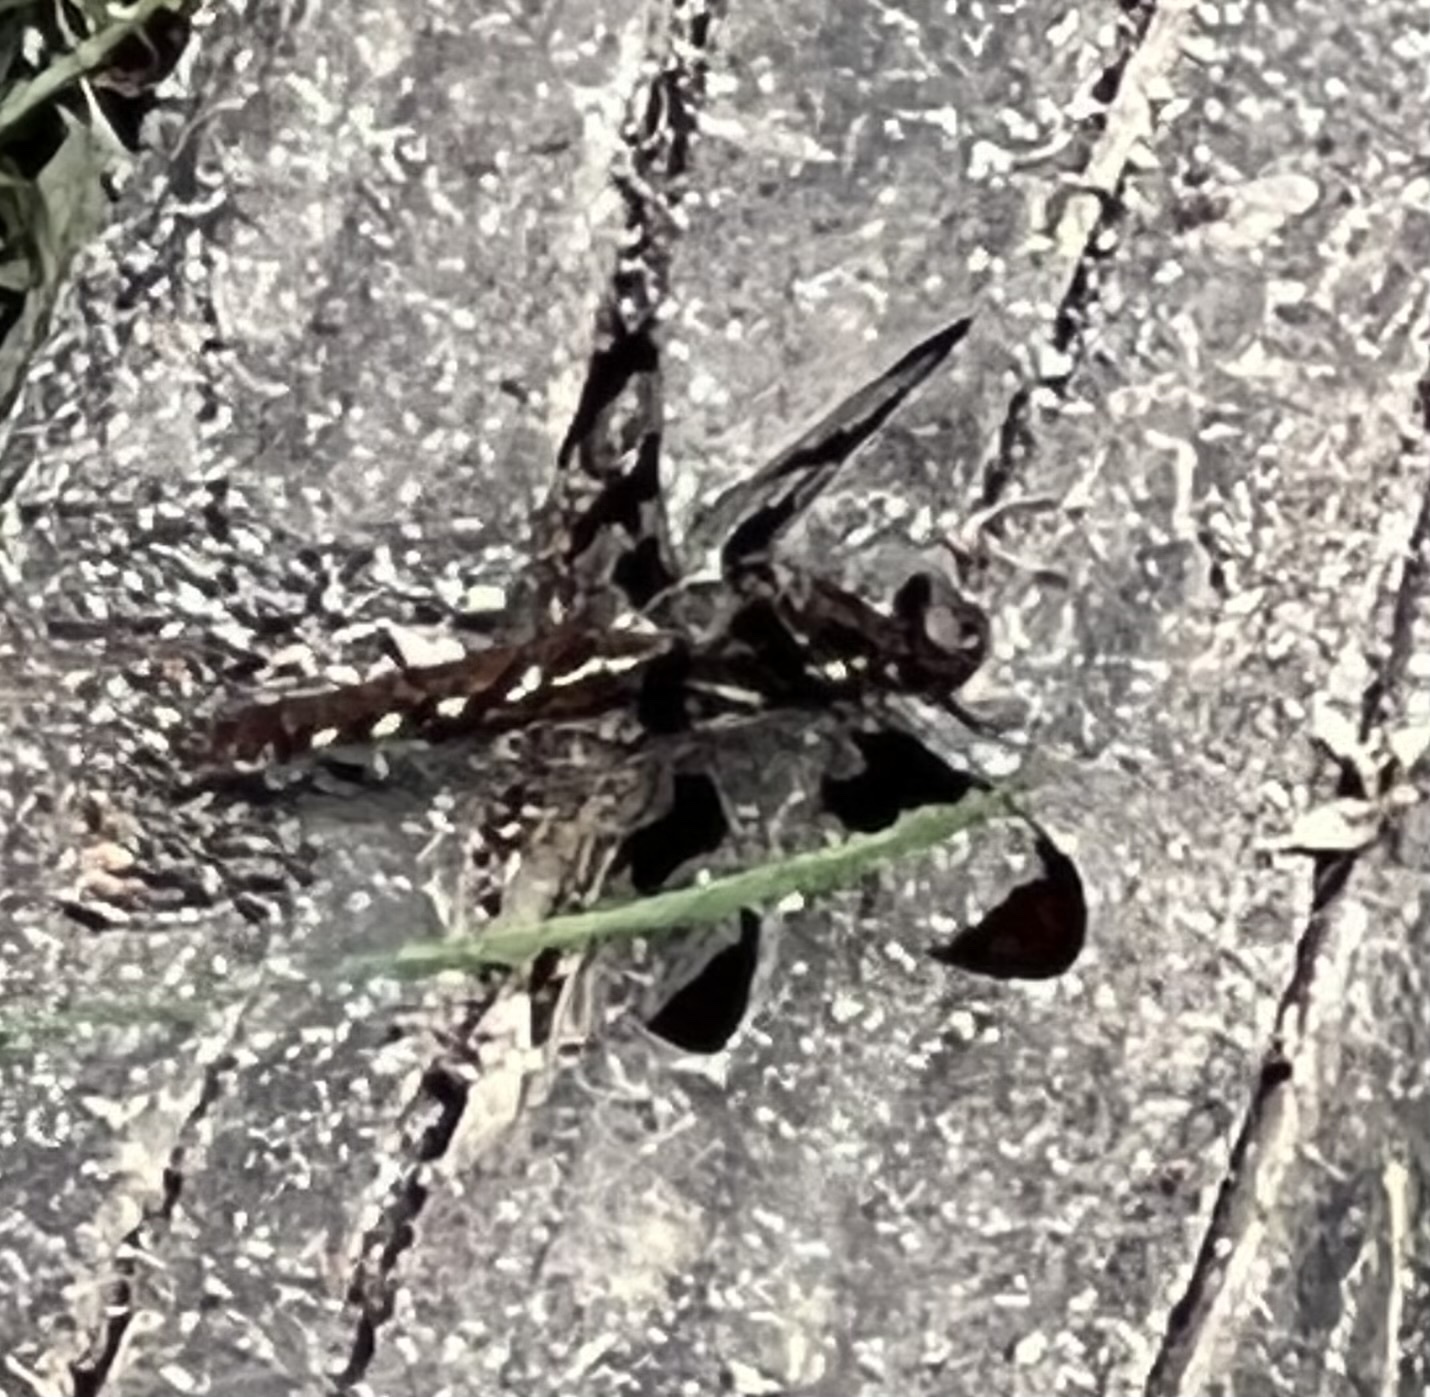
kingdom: Animalia
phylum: Arthropoda
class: Insecta
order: Odonata
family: Libellulidae
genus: Plathemis
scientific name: Plathemis lydia
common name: Common whitetail
